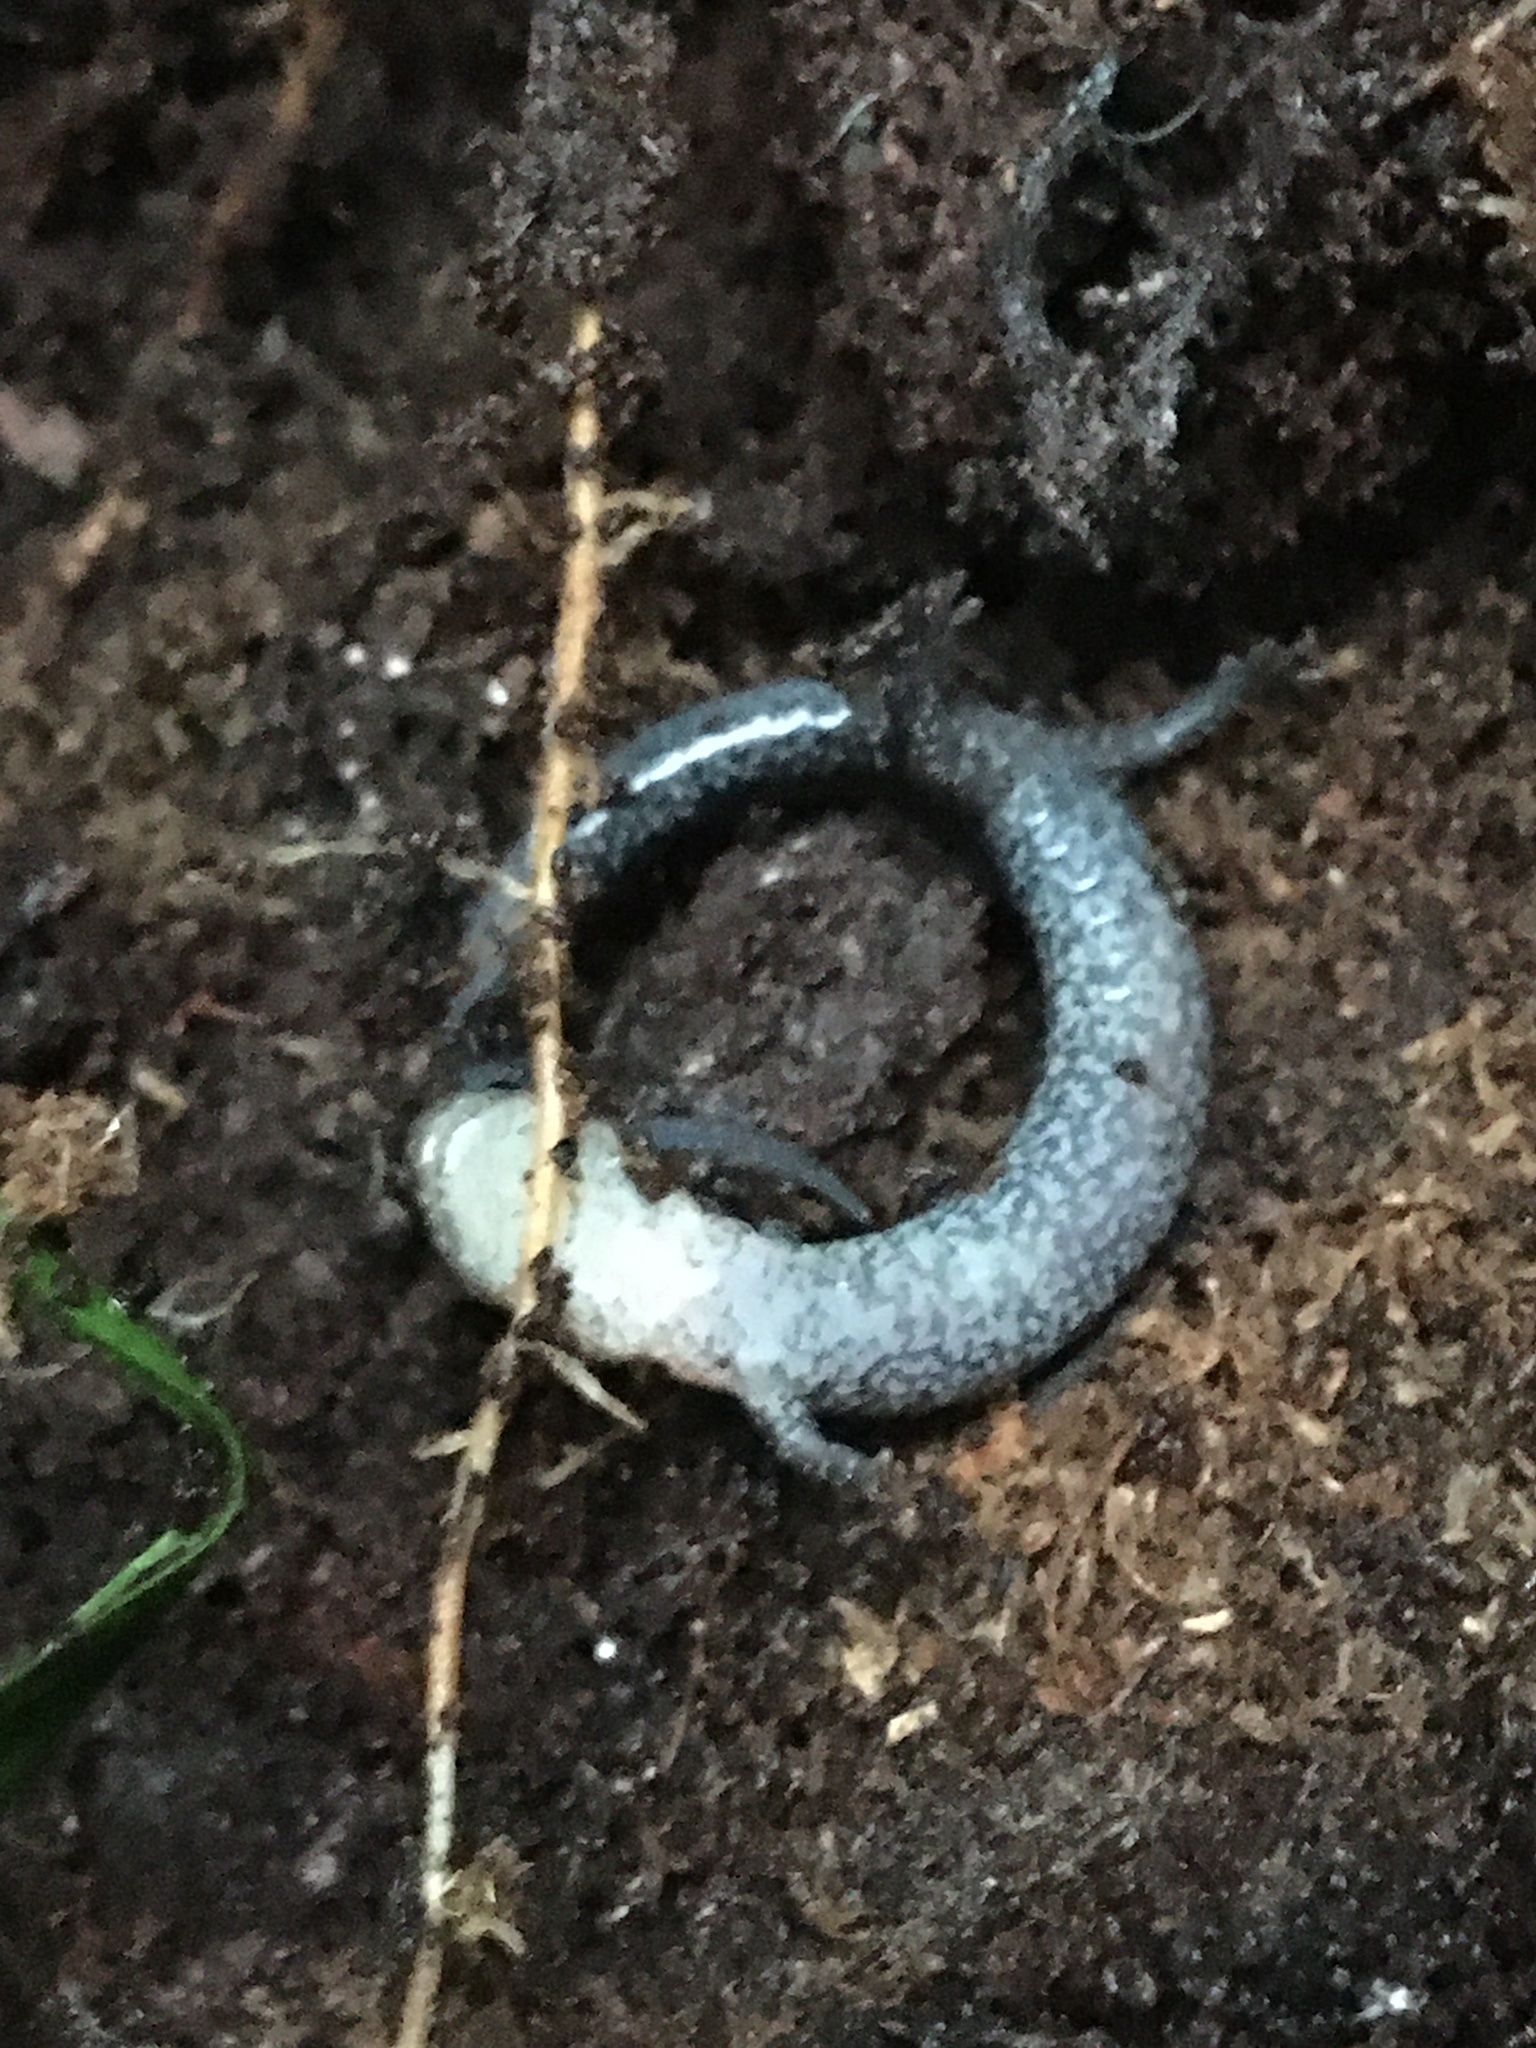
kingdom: Animalia
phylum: Chordata
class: Amphibia
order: Caudata
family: Plethodontidae
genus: Plethodon
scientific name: Plethodon cinereus
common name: Redback salamander
